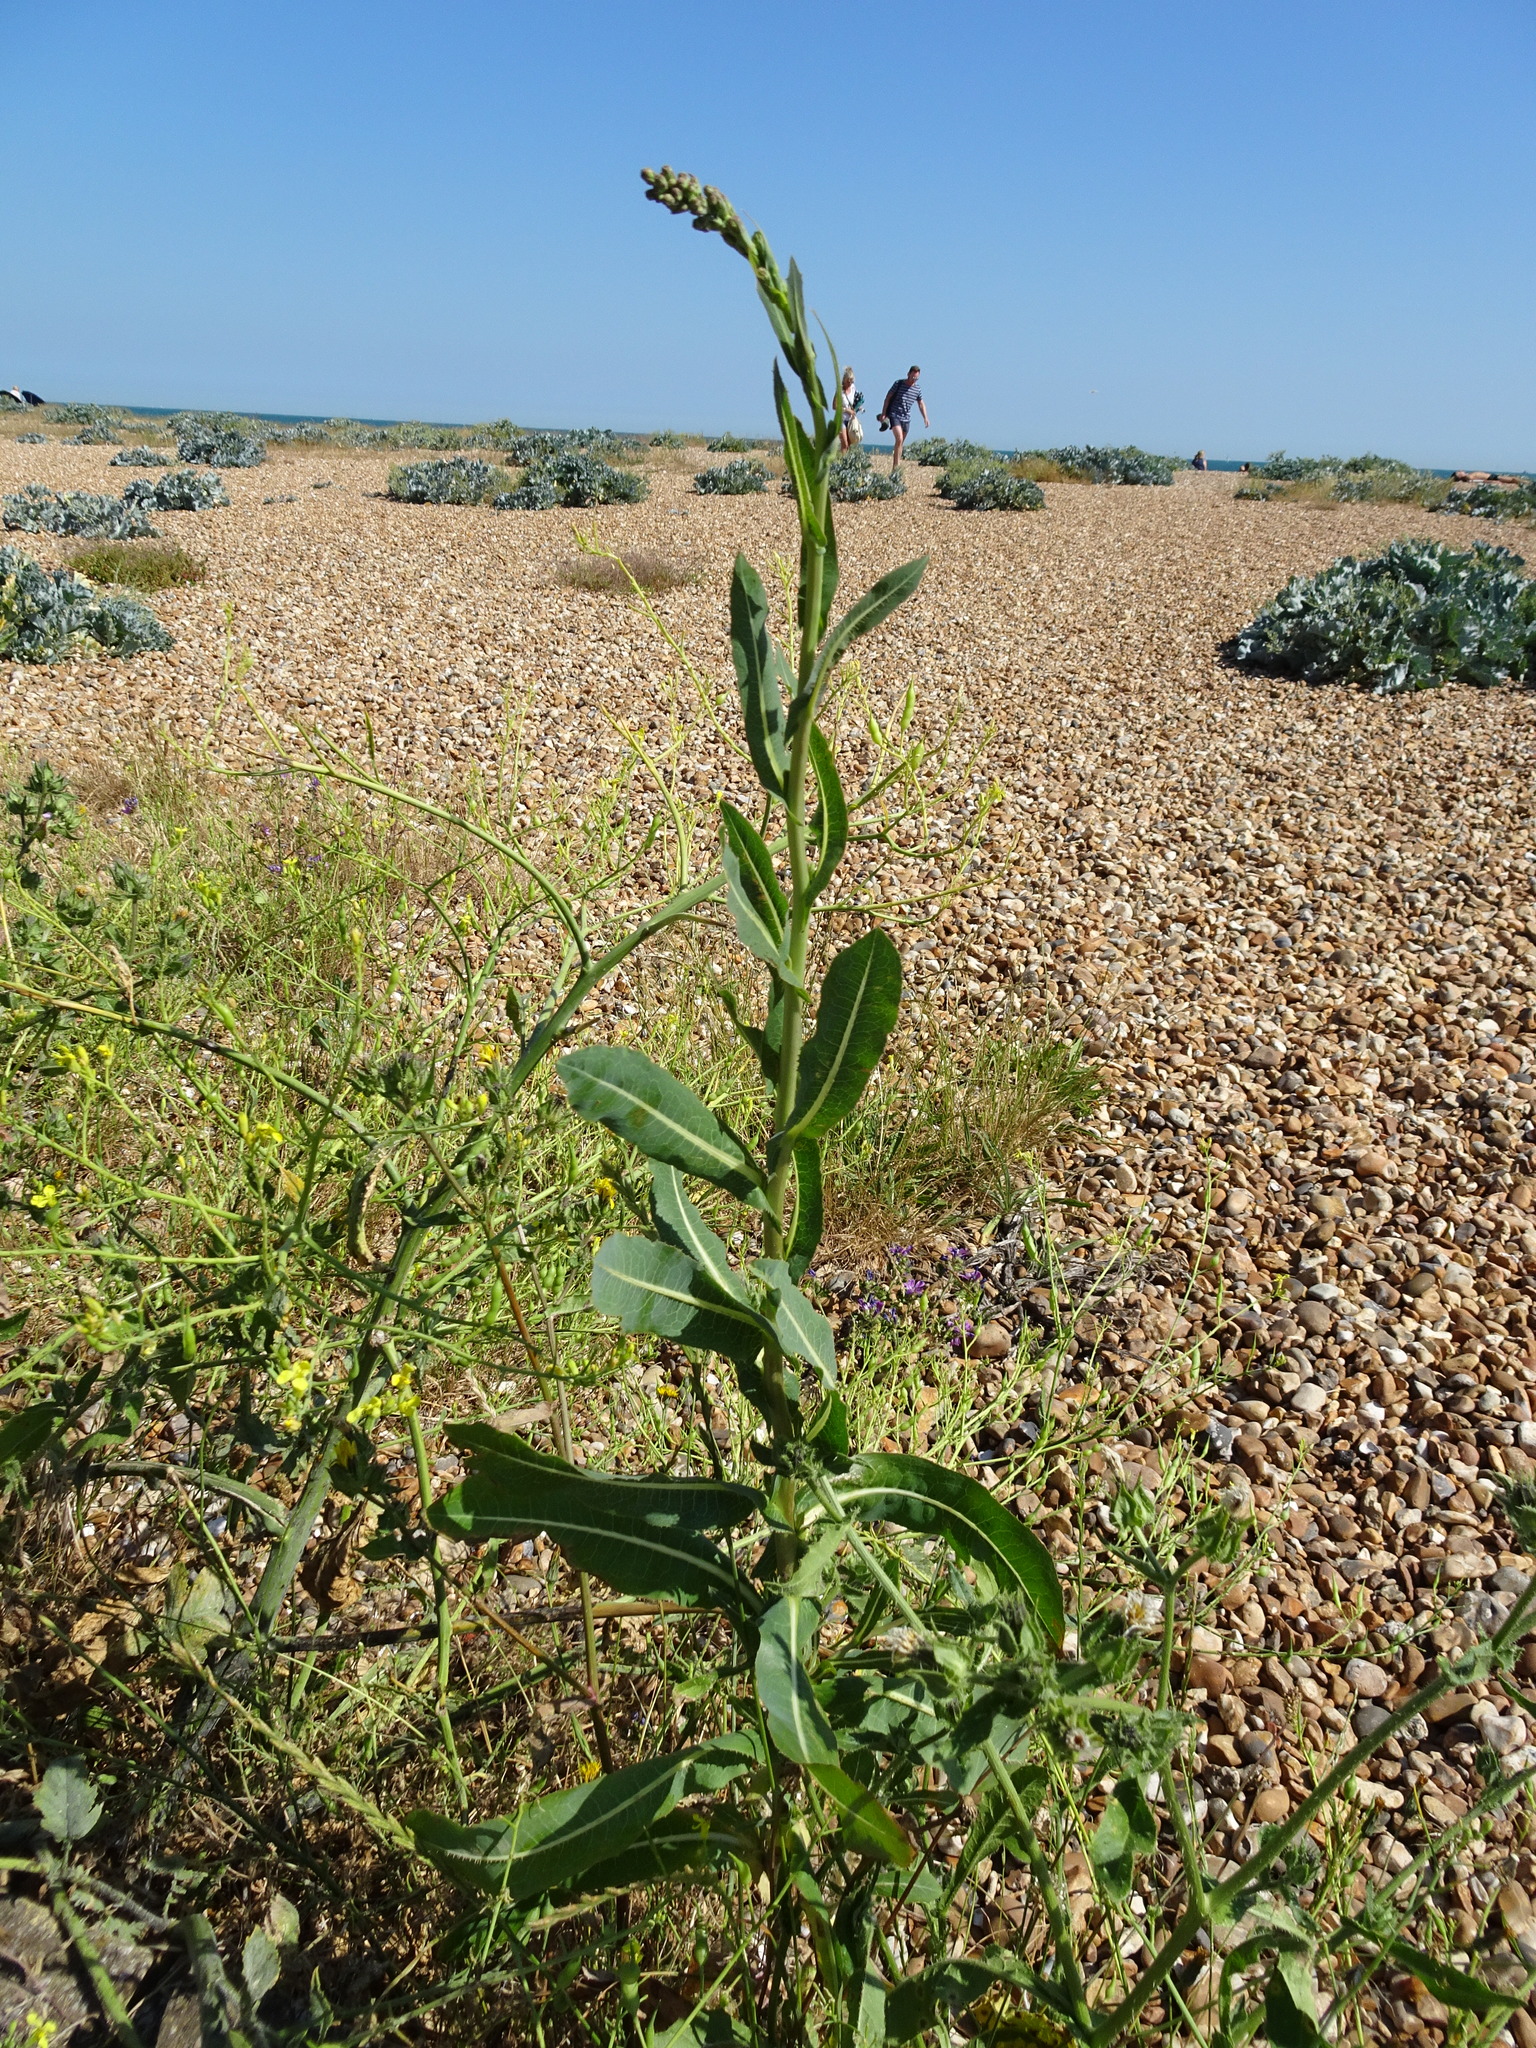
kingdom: Plantae
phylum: Tracheophyta
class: Magnoliopsida
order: Asterales
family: Asteraceae
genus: Lactuca
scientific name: Lactuca serriola
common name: Prickly lettuce
